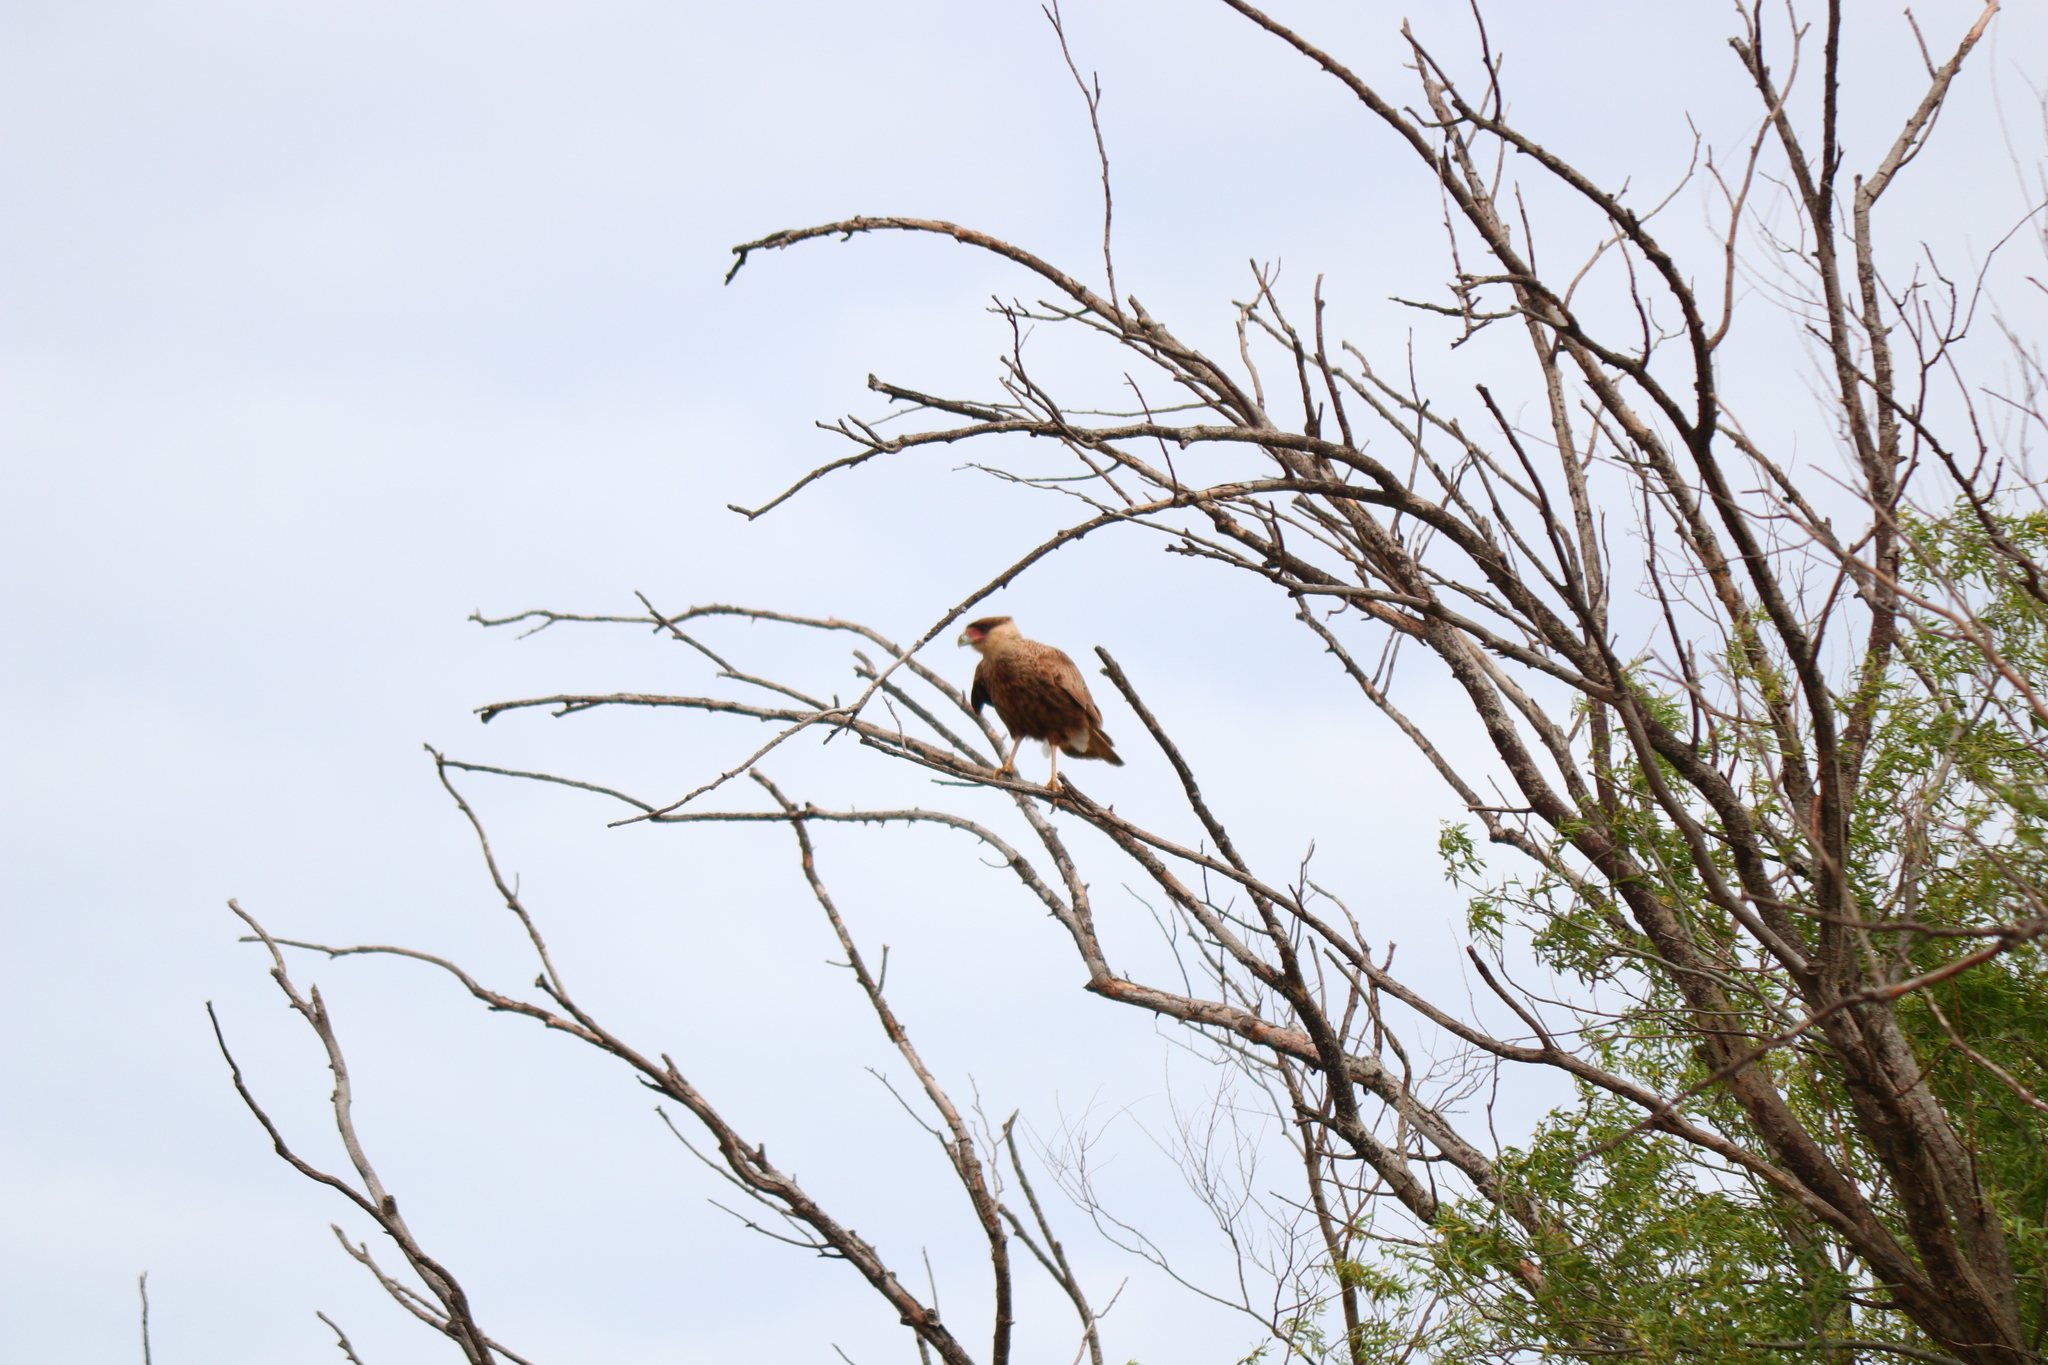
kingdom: Animalia
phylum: Chordata
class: Aves
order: Falconiformes
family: Falconidae
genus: Caracara
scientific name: Caracara plancus
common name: Southern caracara
